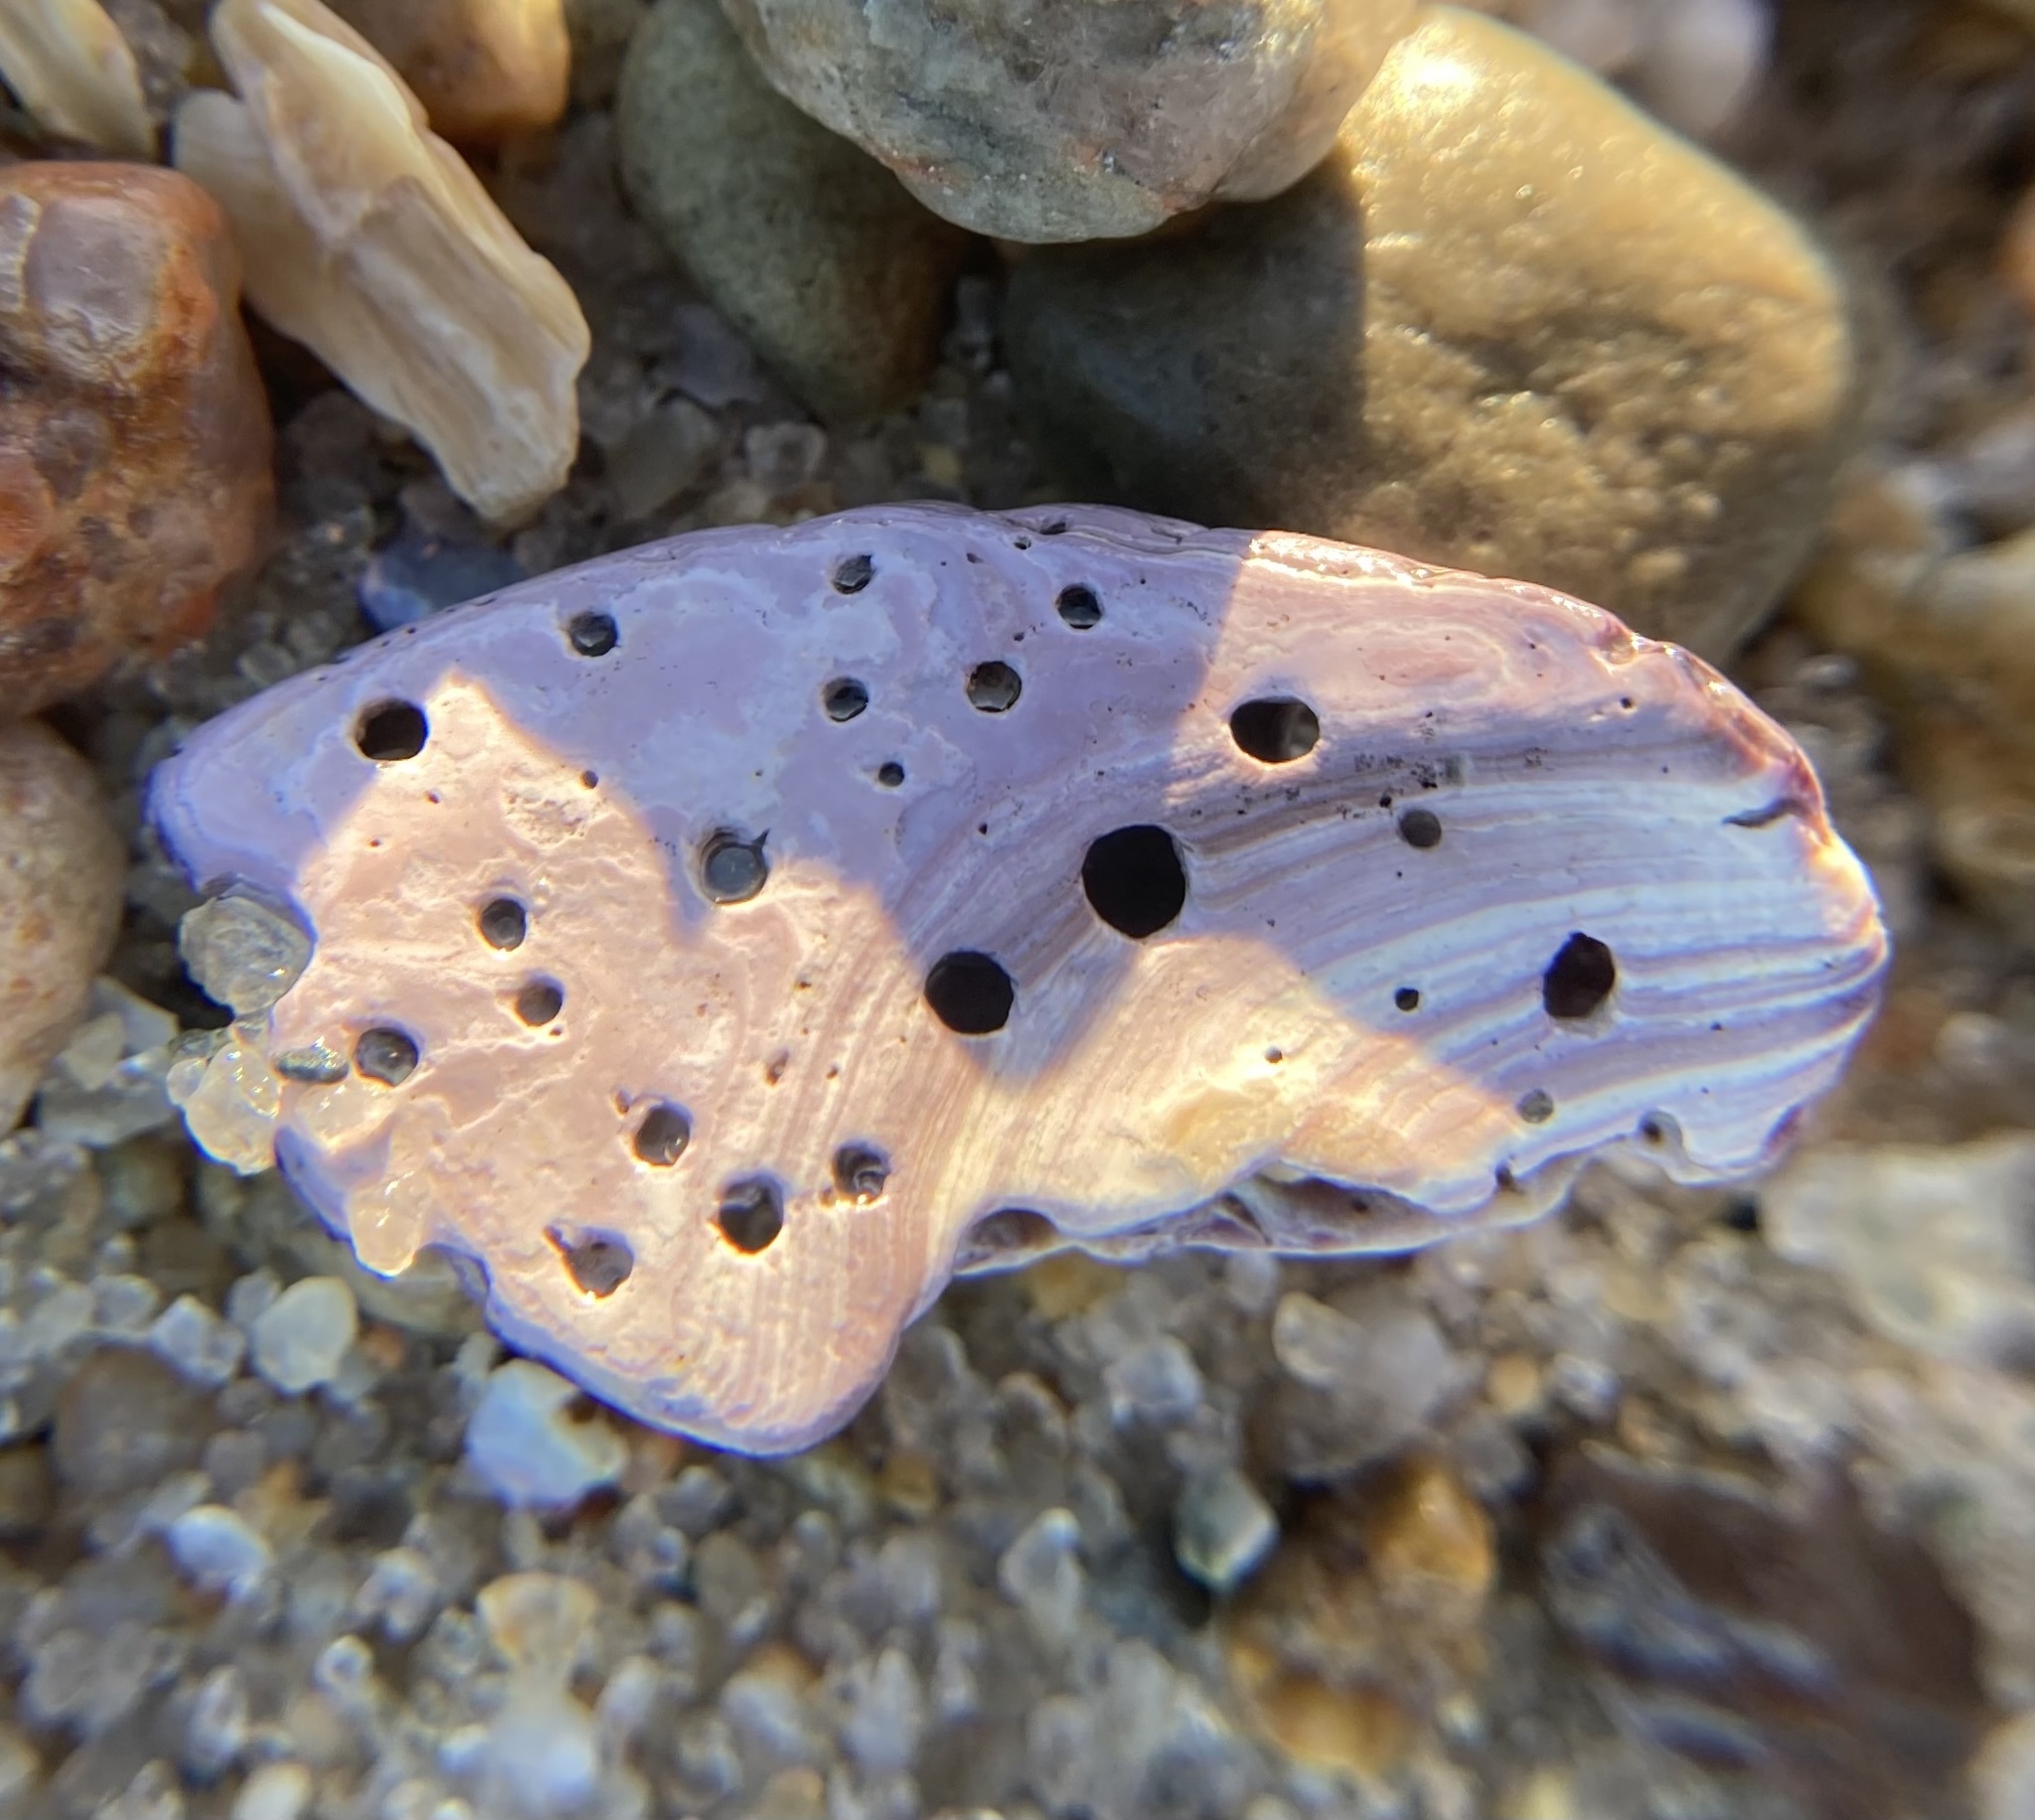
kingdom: Animalia
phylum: Mollusca
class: Bivalvia
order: Venerida
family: Veneridae
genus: Mercenaria
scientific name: Mercenaria mercenaria
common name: American hard-shelled clam
